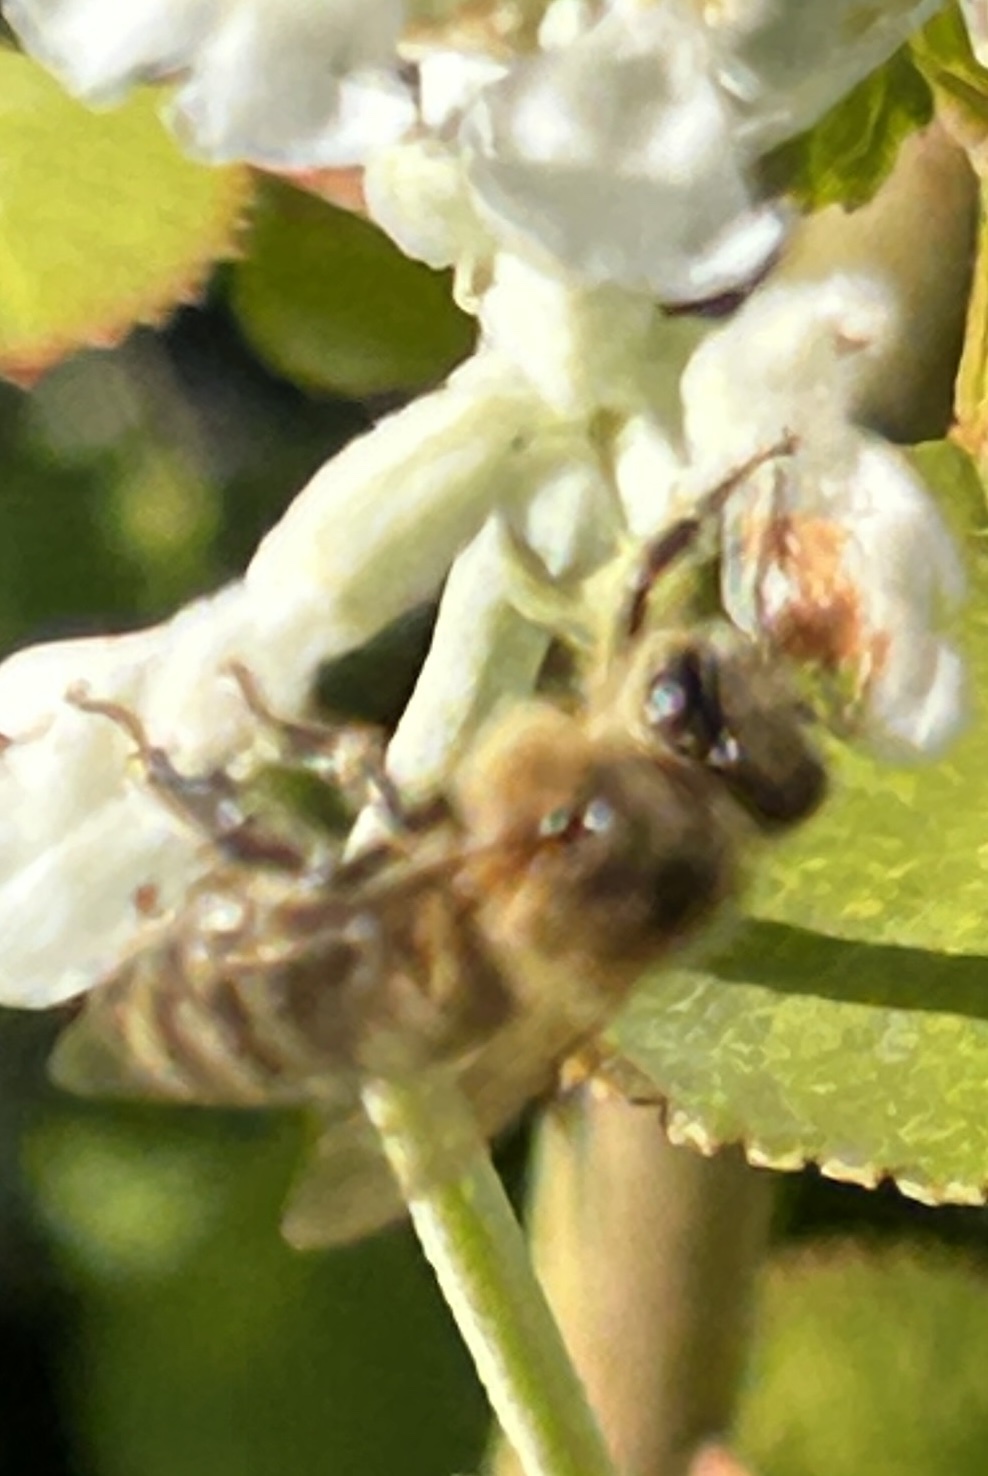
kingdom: Animalia
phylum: Arthropoda
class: Insecta
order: Hymenoptera
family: Apidae
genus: Apis
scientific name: Apis mellifera
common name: Honey bee
